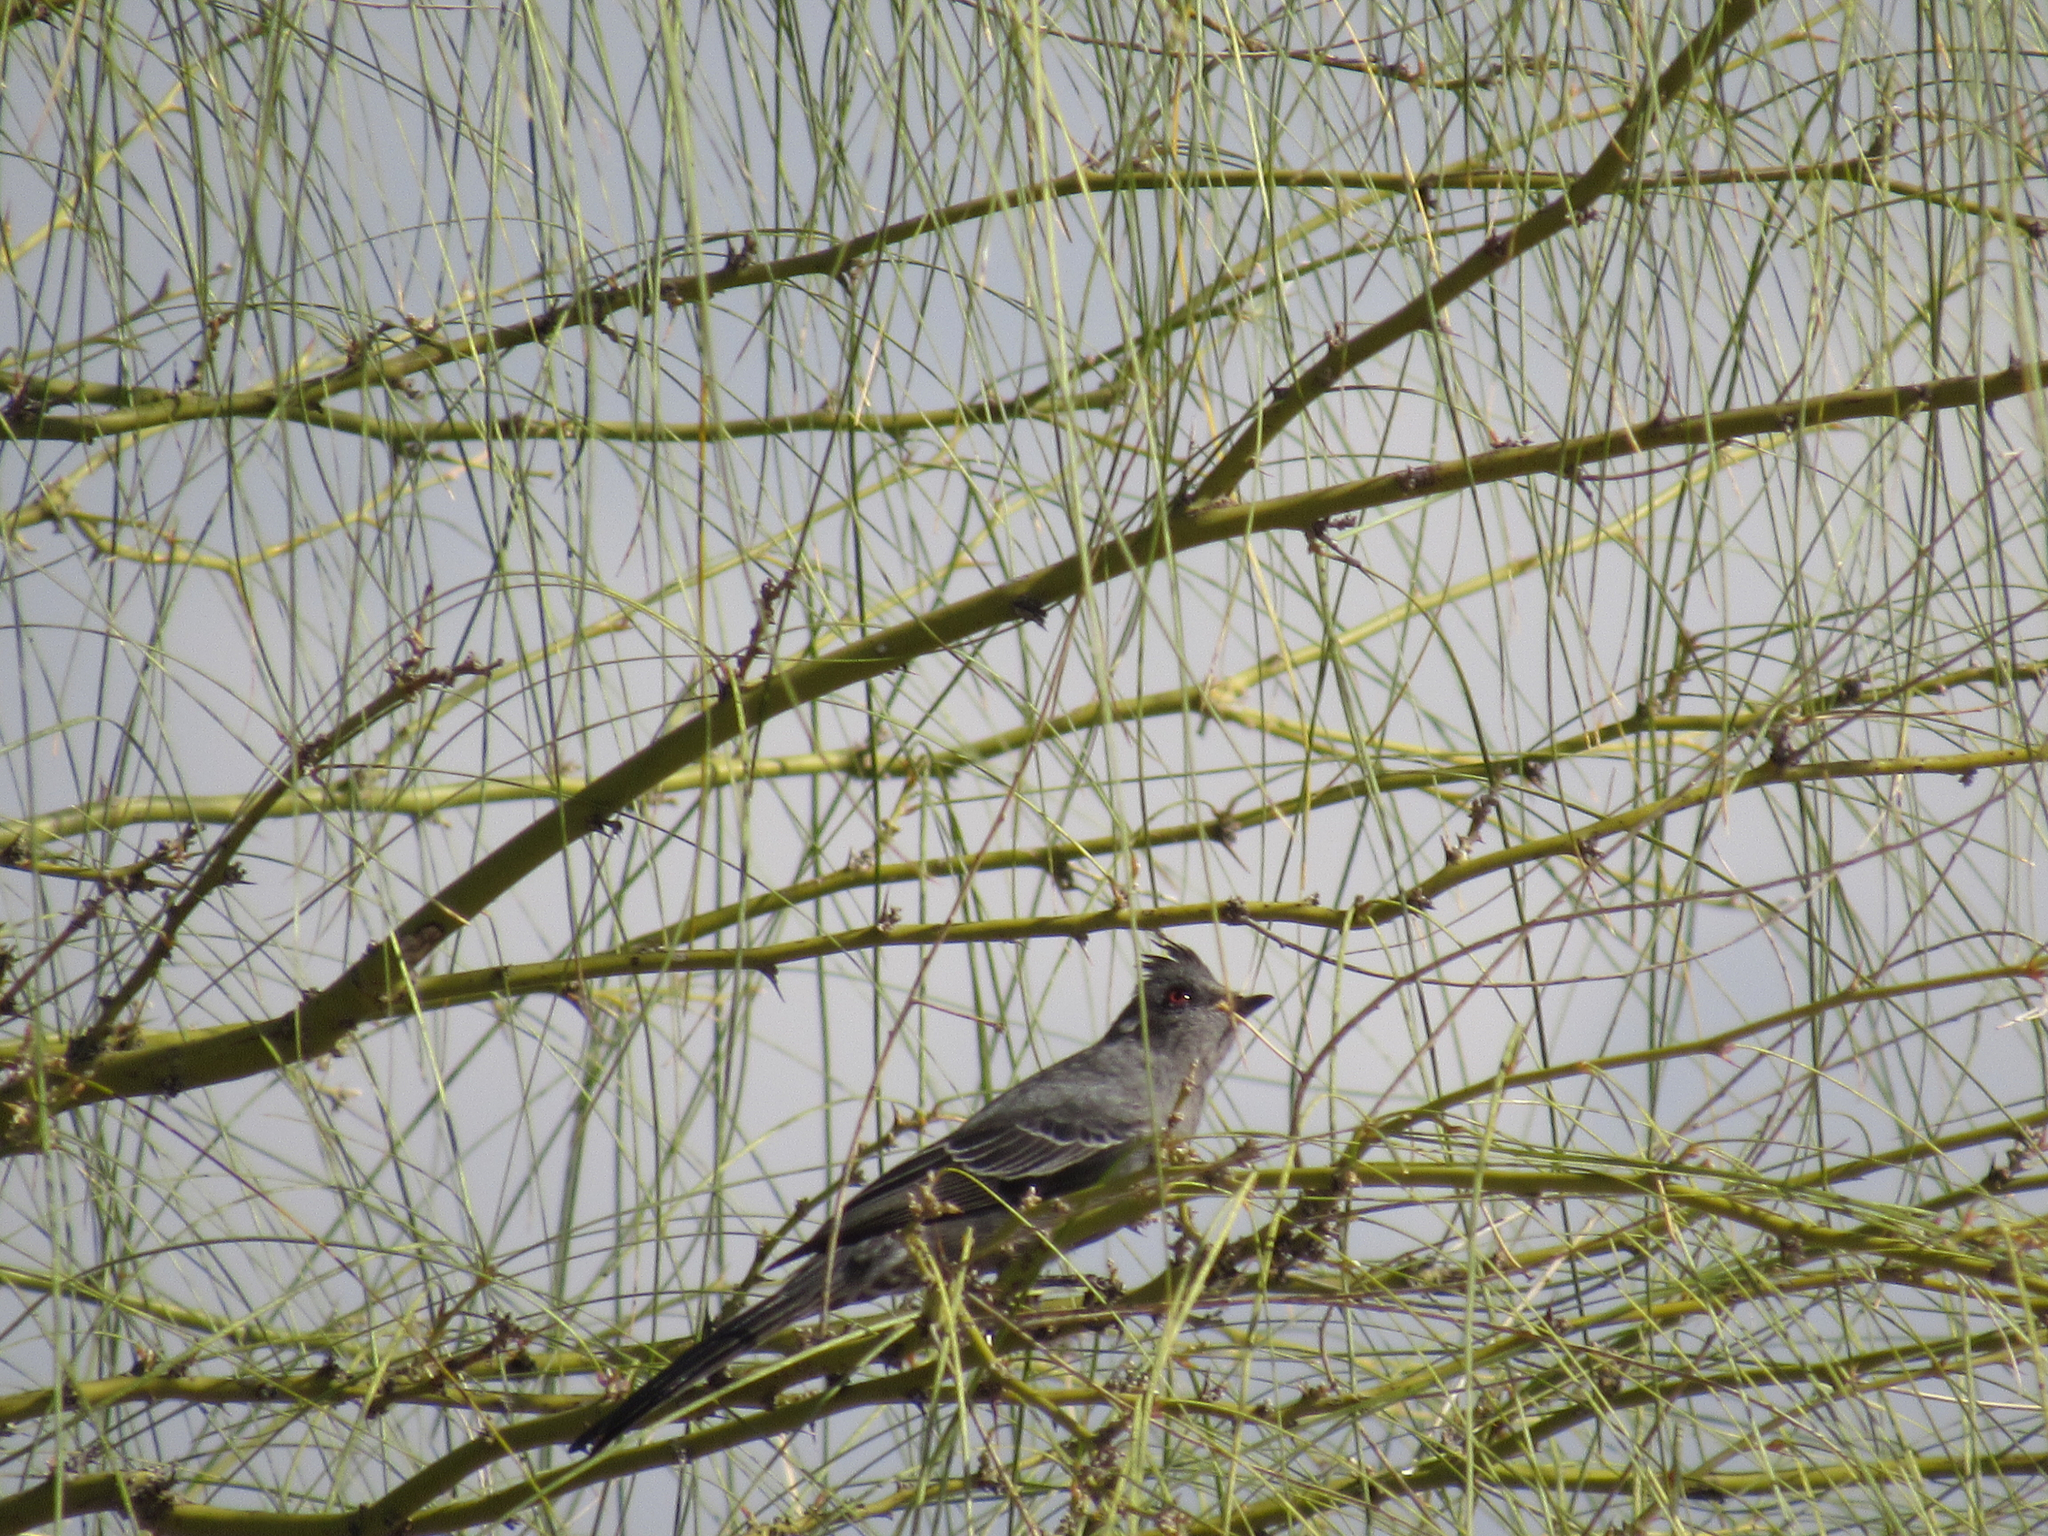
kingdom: Animalia
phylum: Chordata
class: Aves
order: Passeriformes
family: Ptilogonatidae
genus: Phainopepla
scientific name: Phainopepla nitens
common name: Phainopepla
